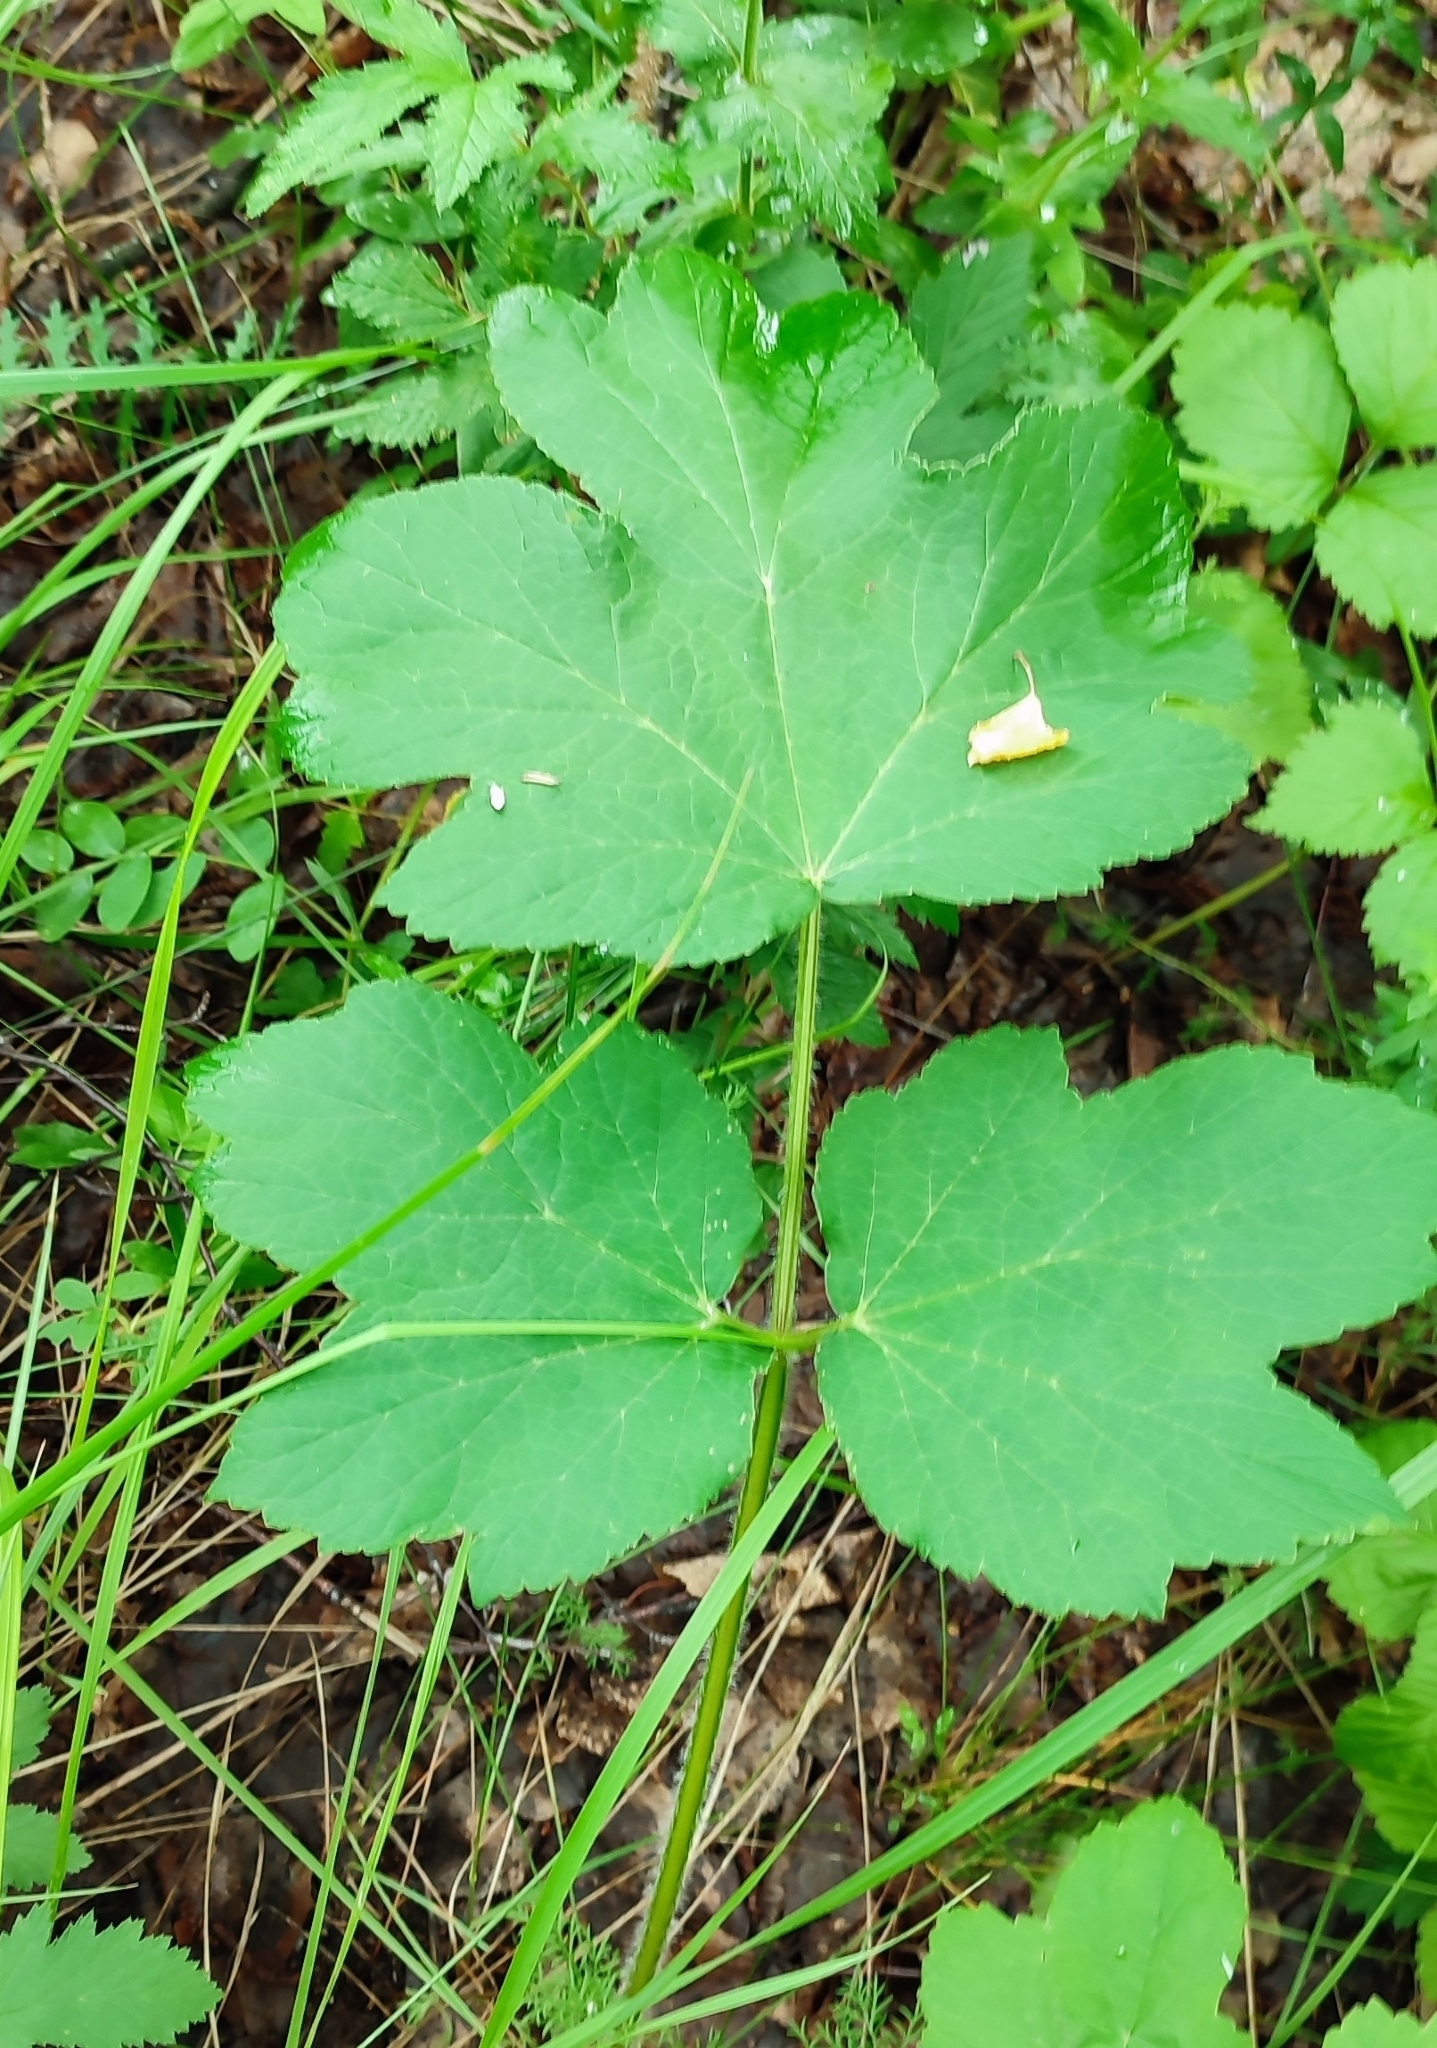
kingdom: Plantae
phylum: Tracheophyta
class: Magnoliopsida
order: Apiales
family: Apiaceae
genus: Heracleum
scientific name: Heracleum sphondylium
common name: Hogweed
